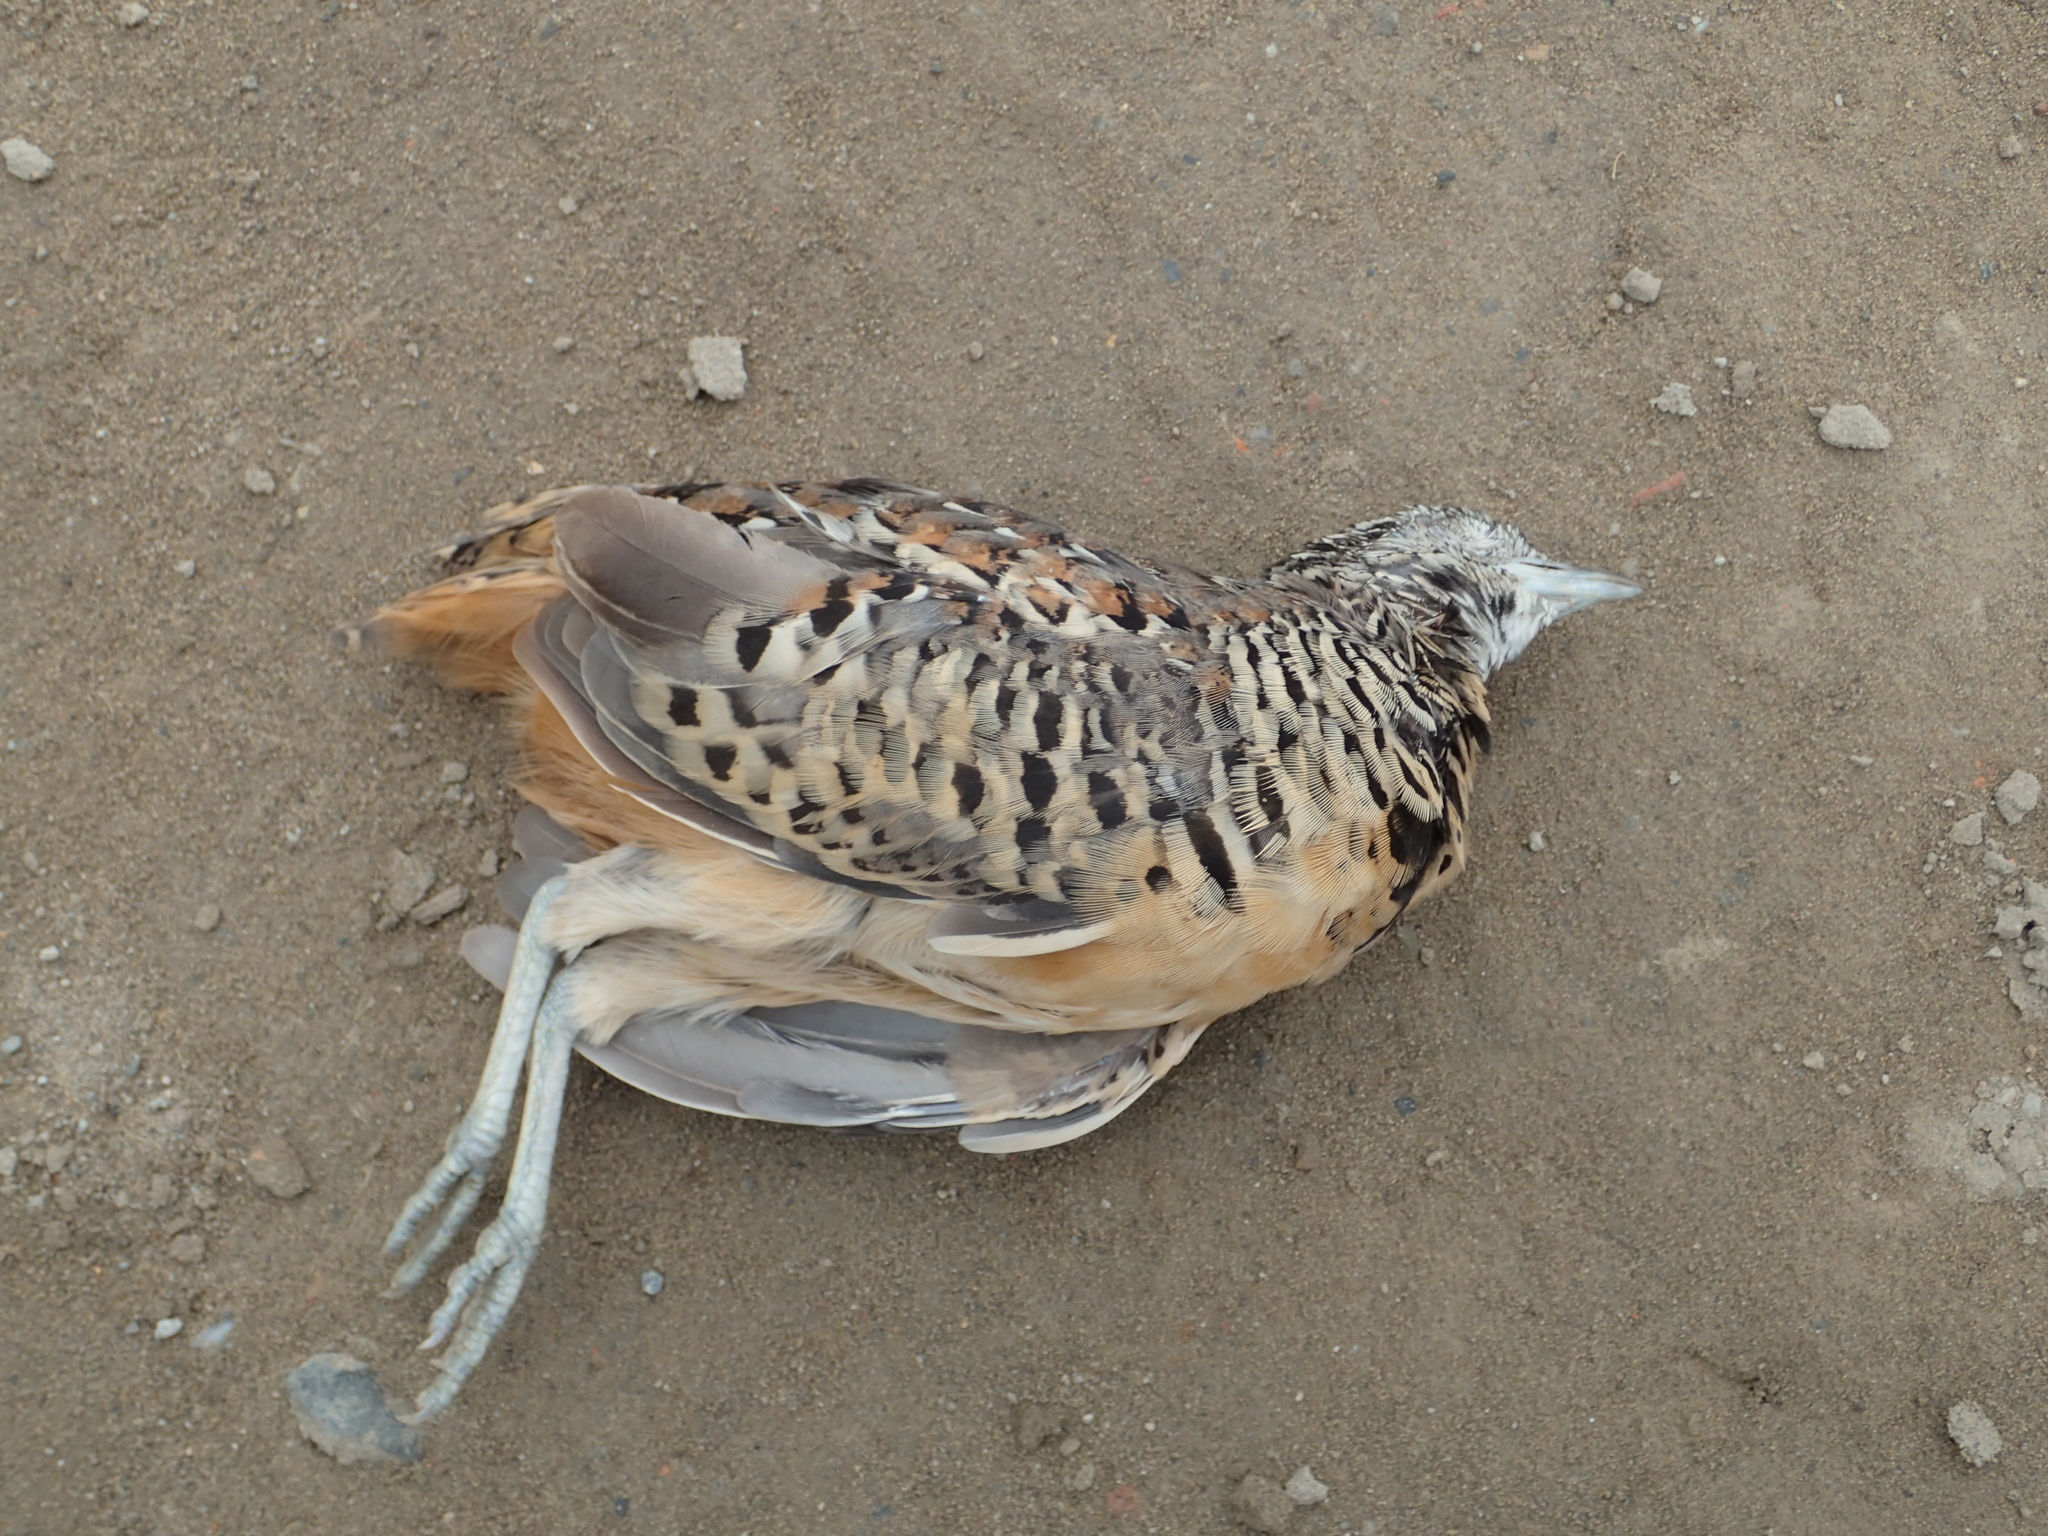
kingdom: Animalia
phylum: Chordata
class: Aves
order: Charadriiformes
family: Turnicidae
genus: Turnix
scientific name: Turnix suscitator
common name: Barred buttonquail
